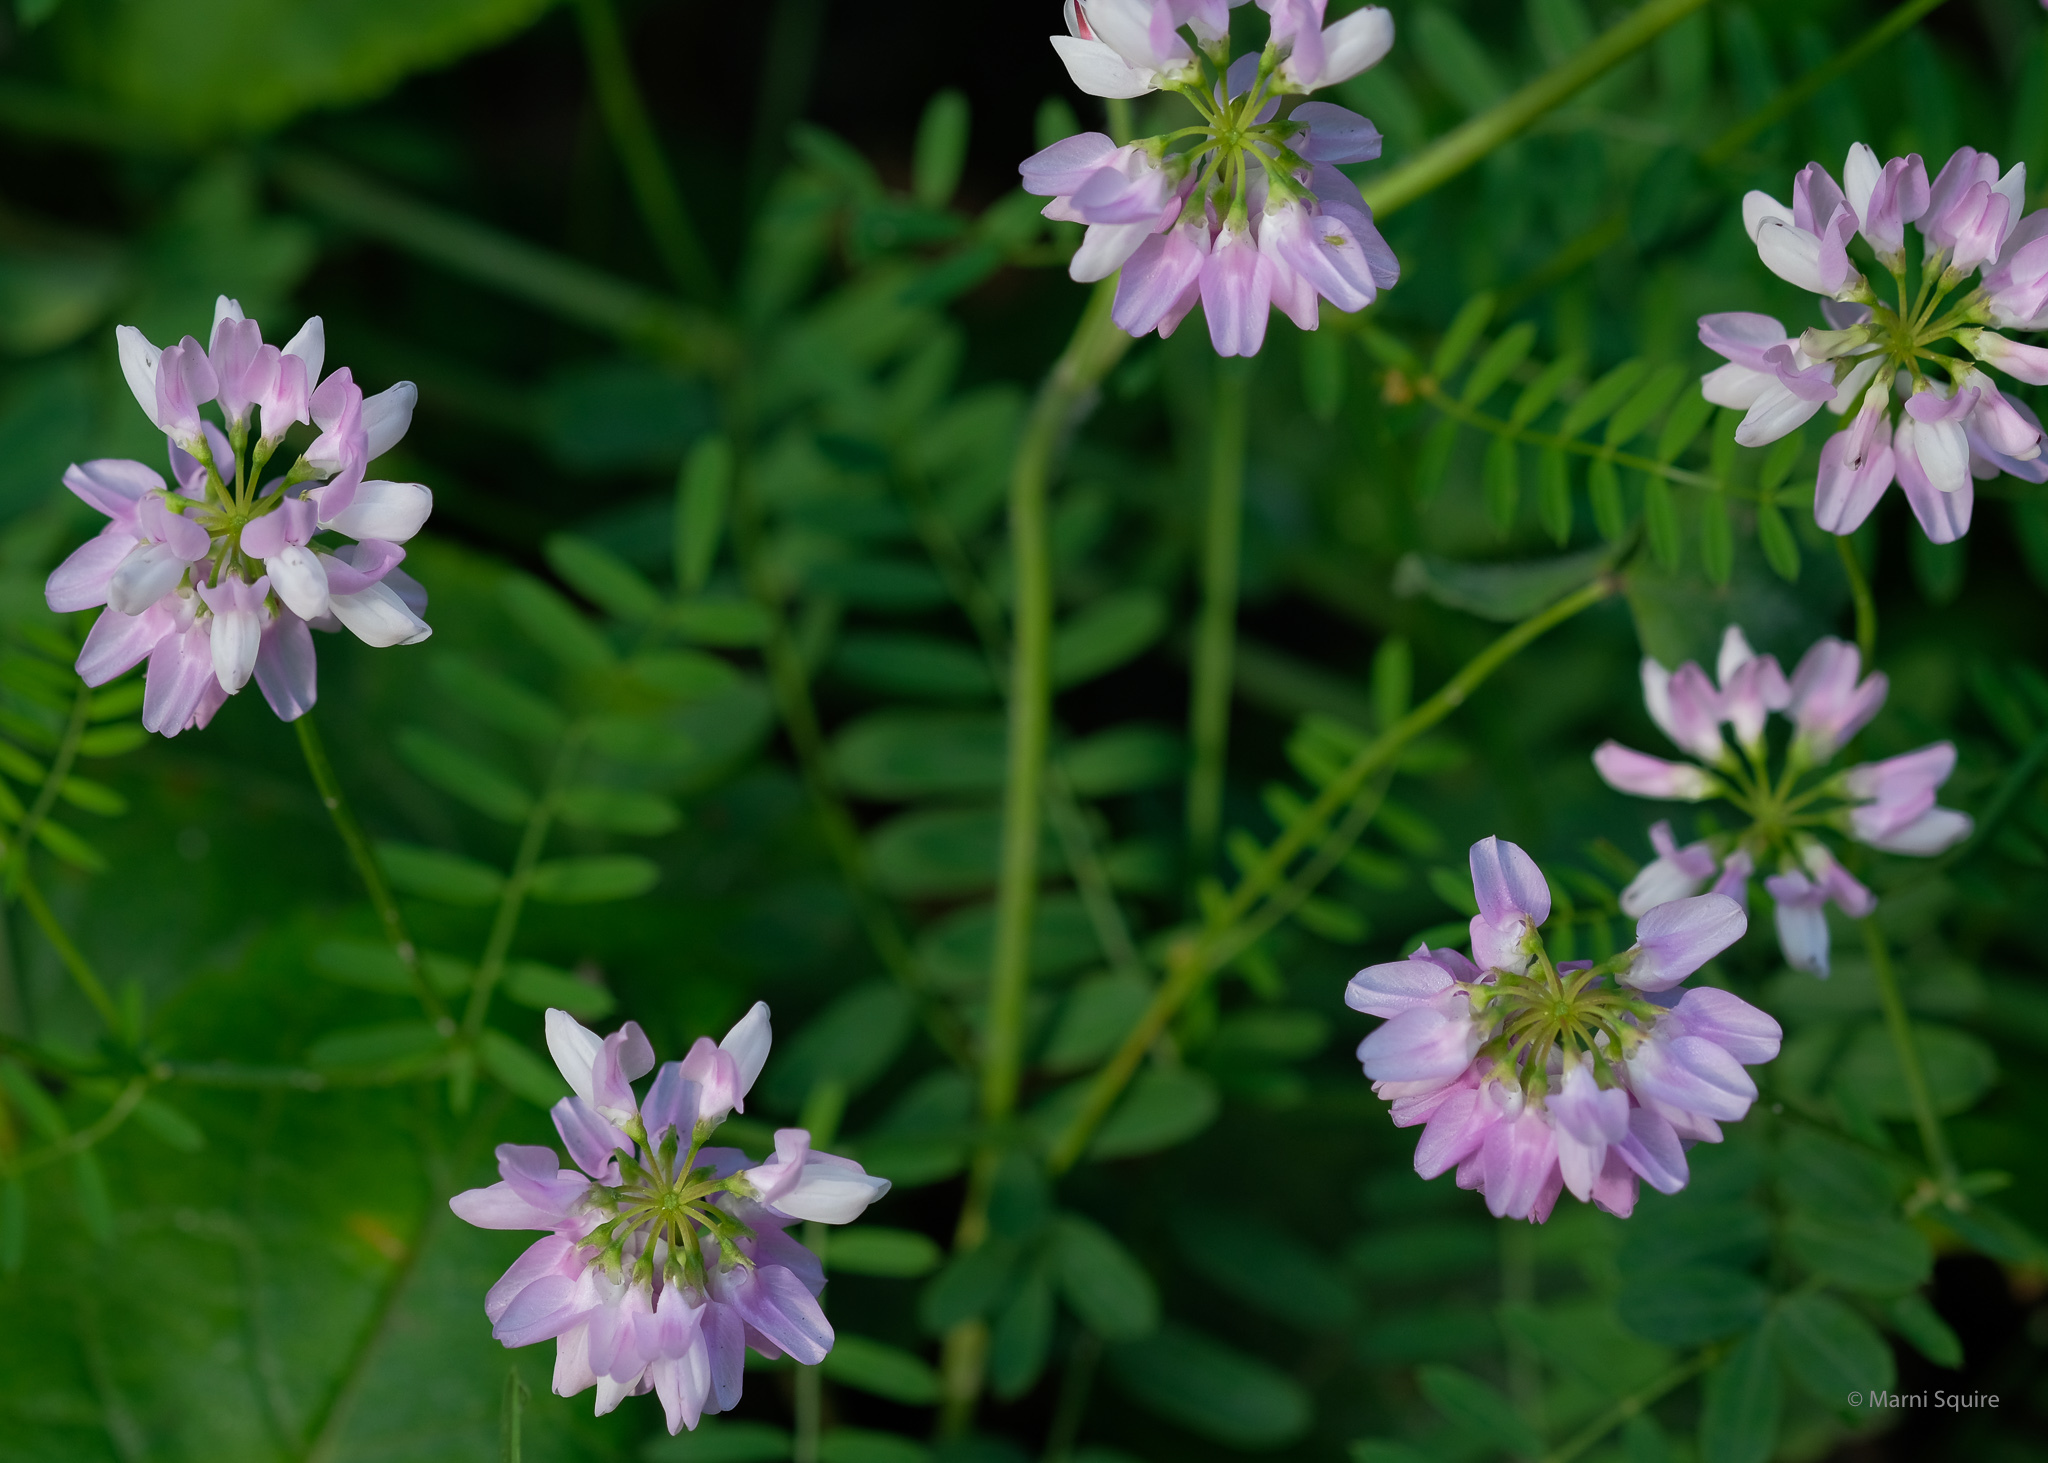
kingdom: Plantae
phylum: Tracheophyta
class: Magnoliopsida
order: Fabales
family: Fabaceae
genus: Coronilla
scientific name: Coronilla varia
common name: Crownvetch
